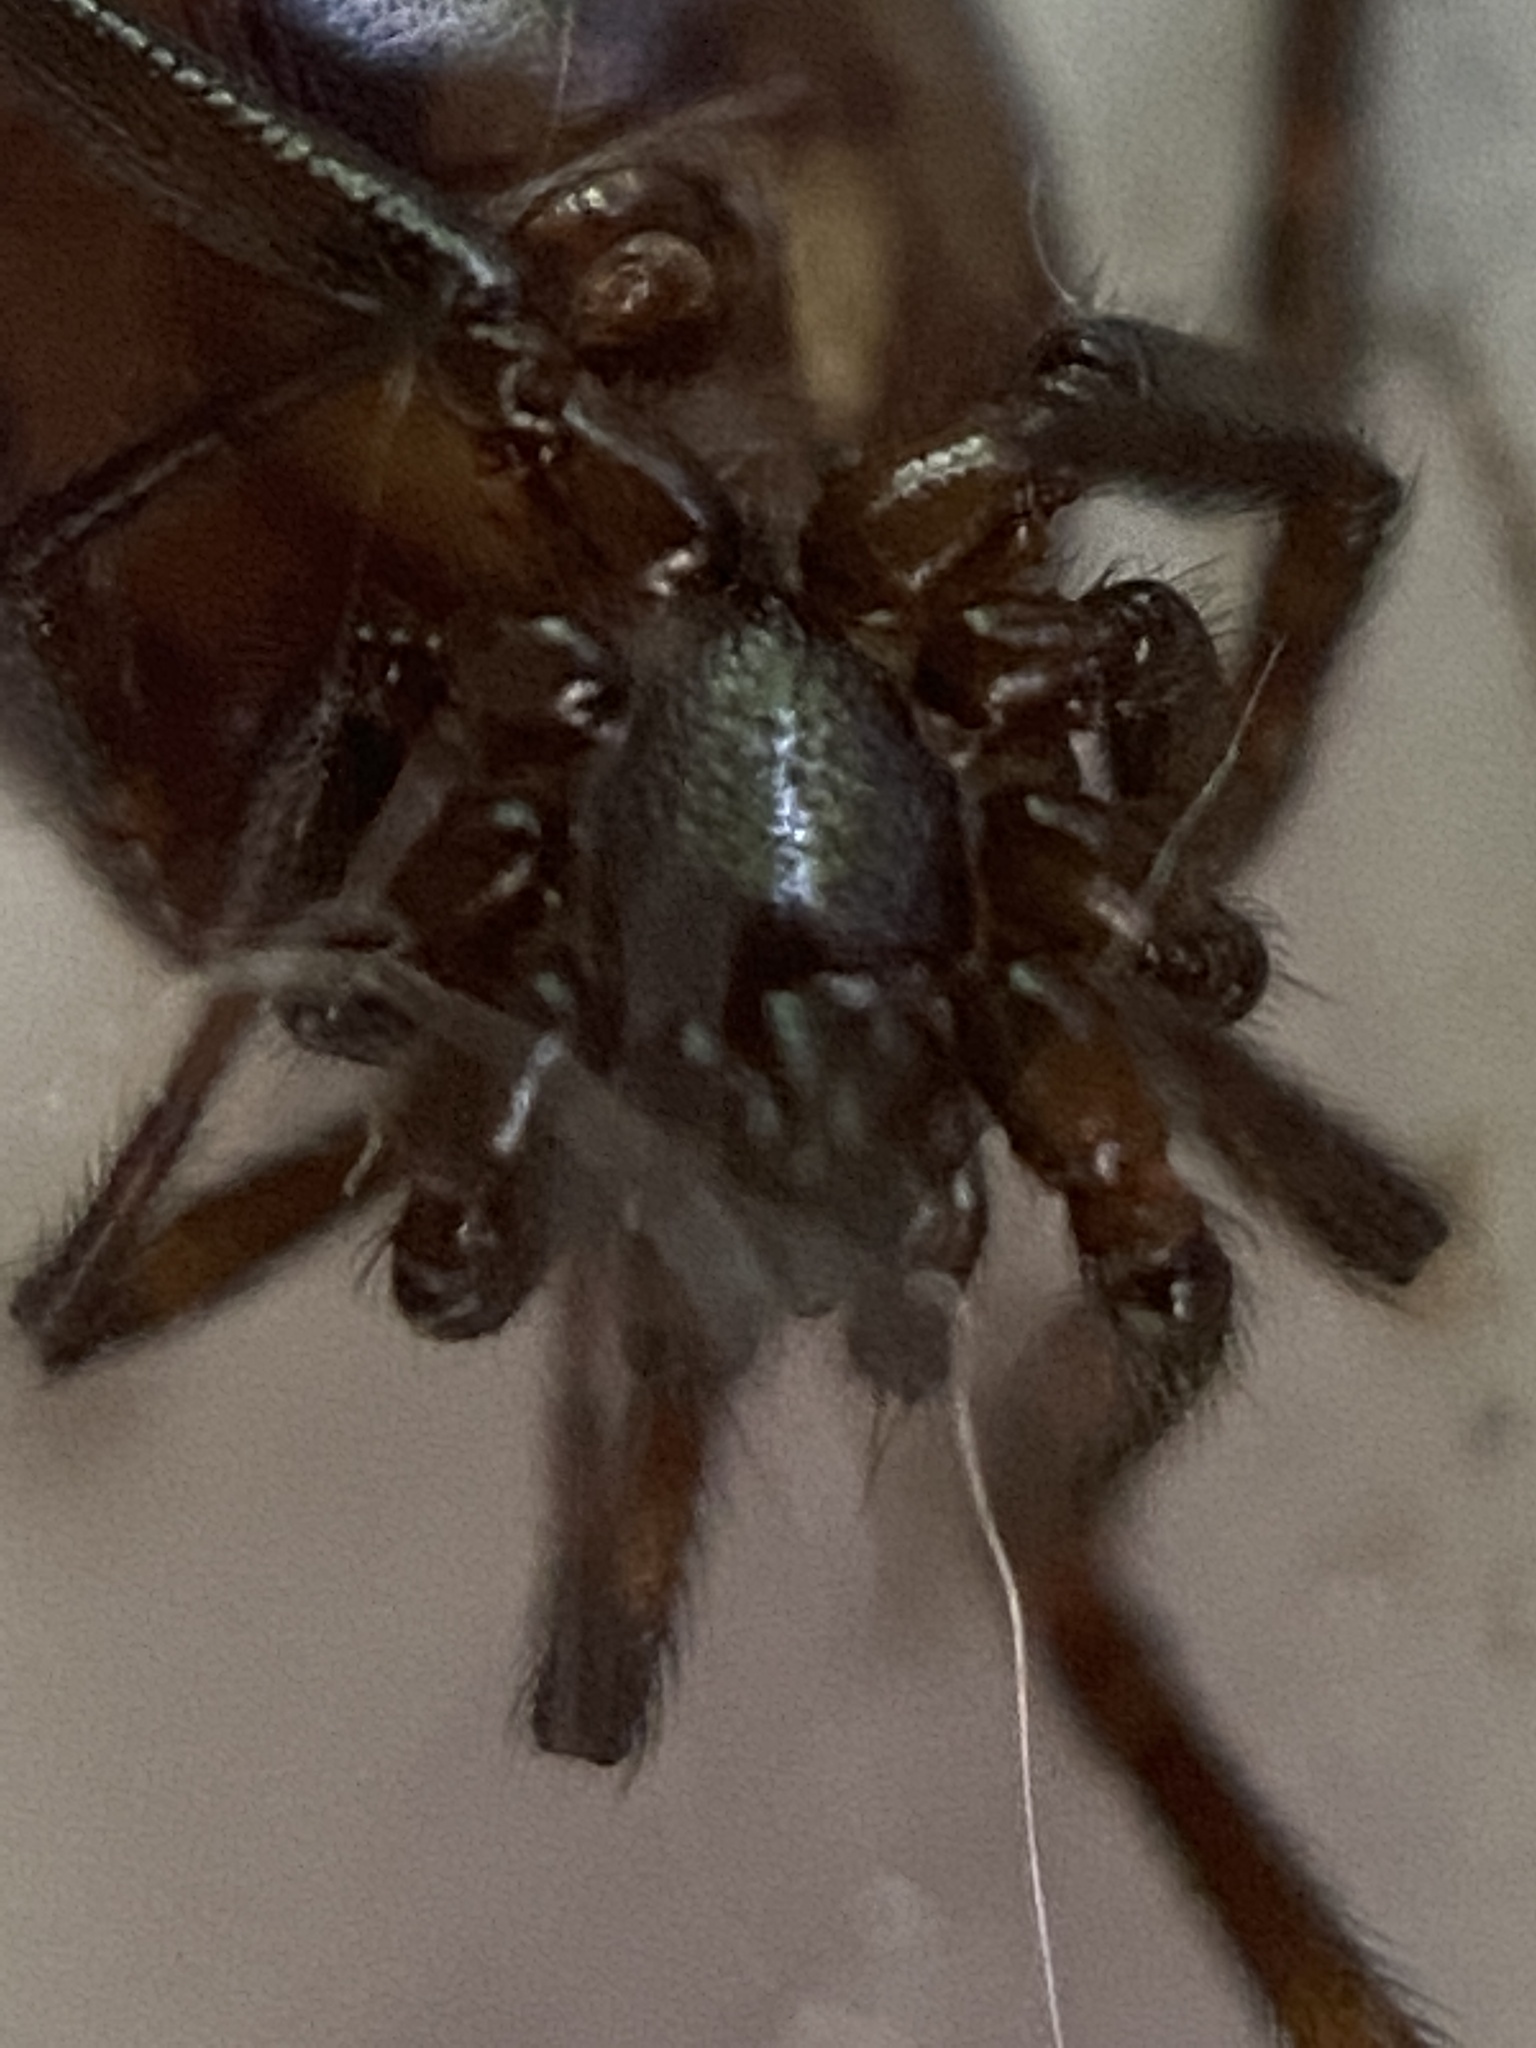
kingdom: Animalia
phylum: Arthropoda
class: Arachnida
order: Araneae
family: Theridiidae
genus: Steatoda
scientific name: Steatoda borealis
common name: Boreal combfoot
